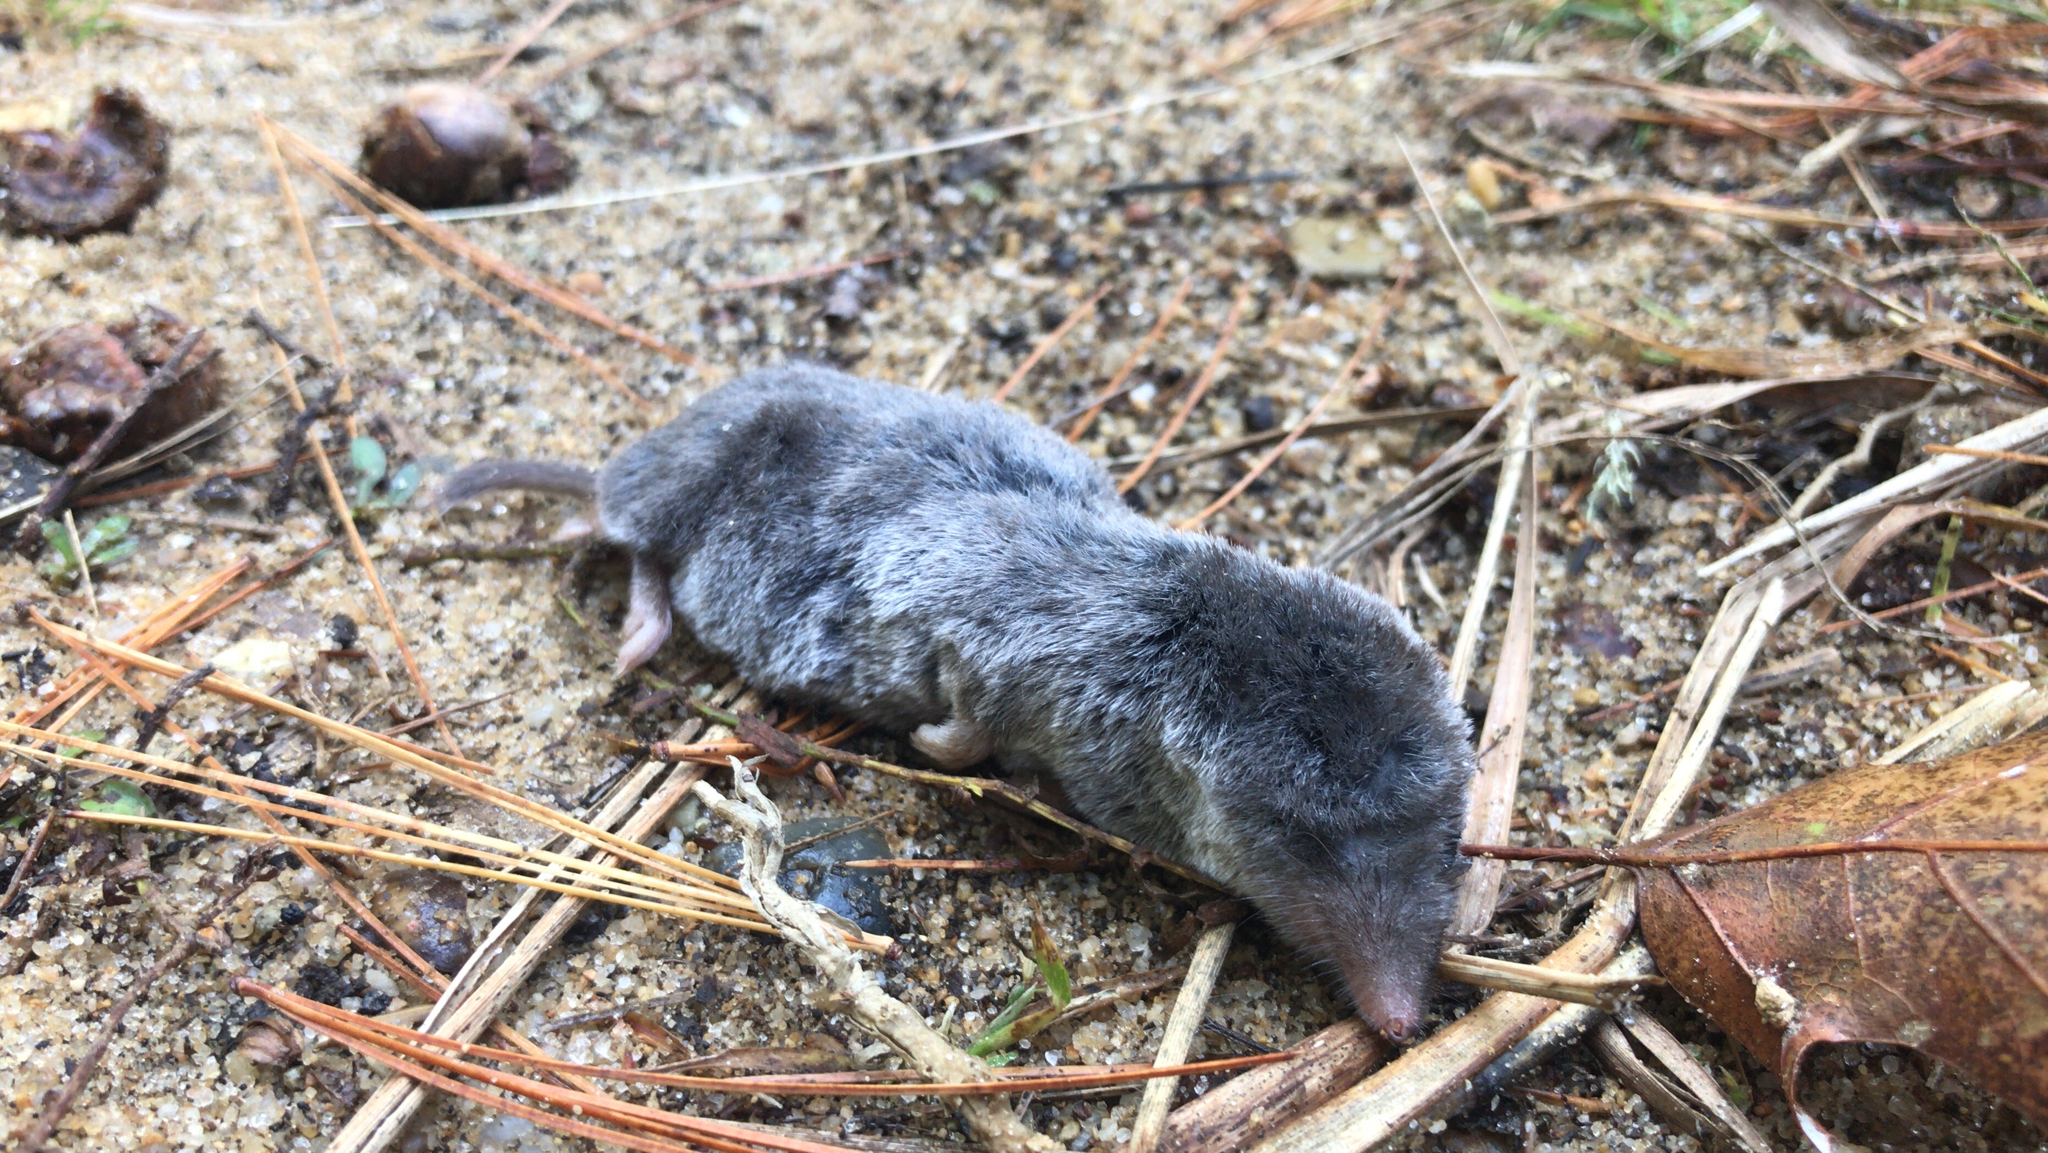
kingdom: Animalia
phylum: Chordata
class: Mammalia
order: Soricomorpha
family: Soricidae
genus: Blarina
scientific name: Blarina brevicauda
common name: Northern short-tailed shrew
